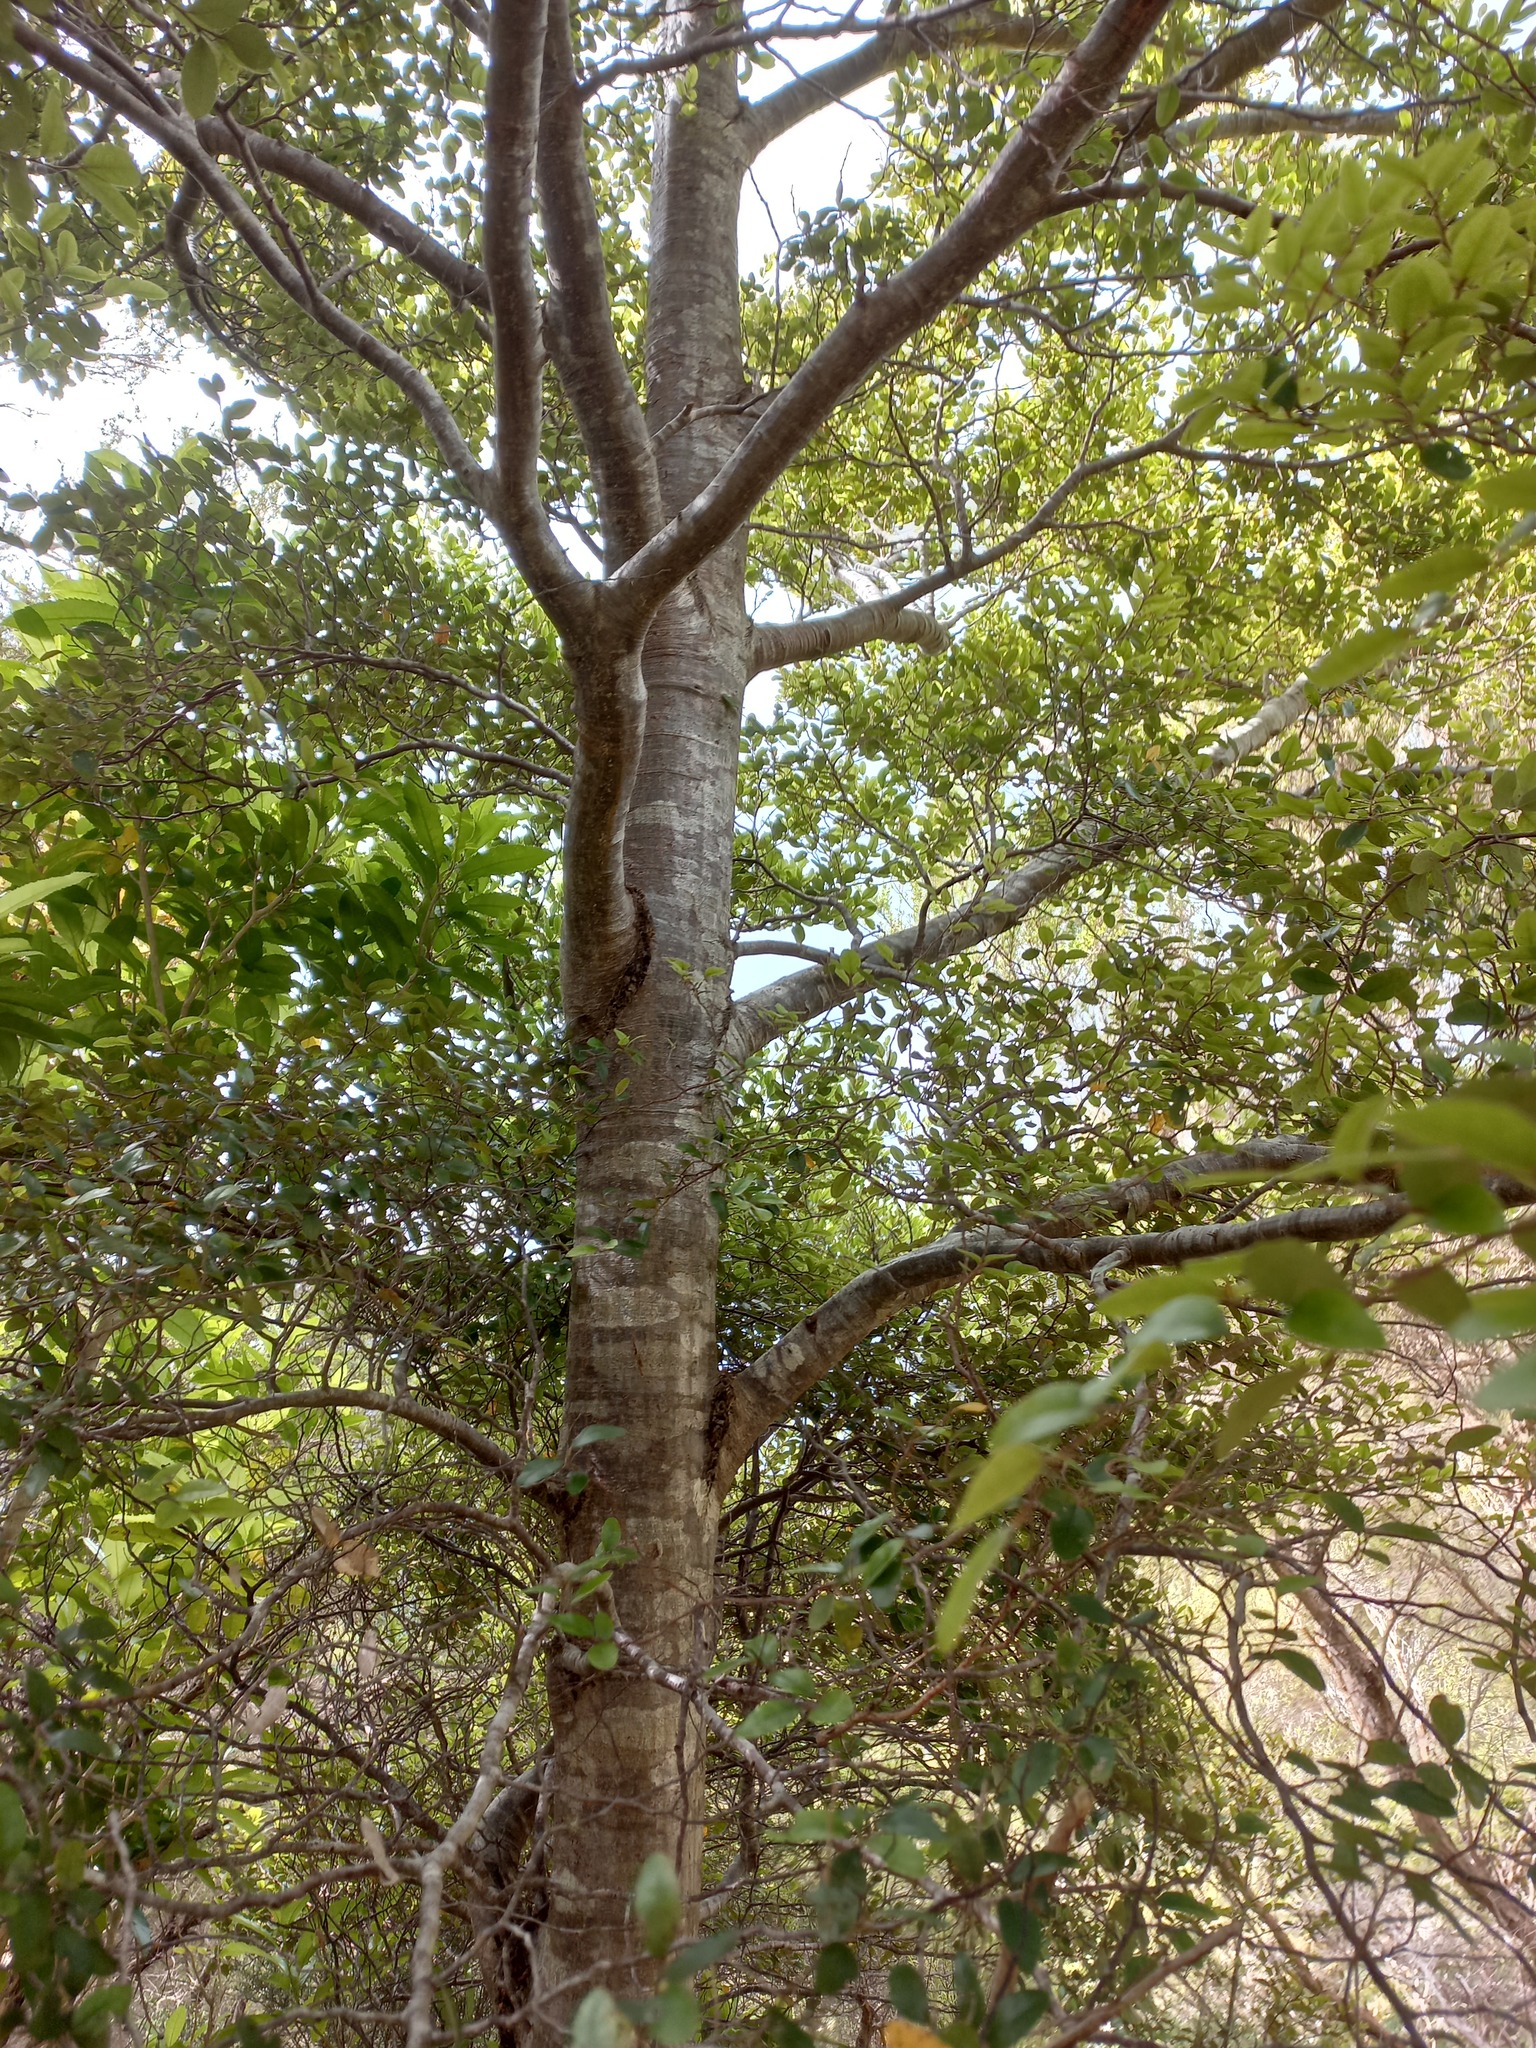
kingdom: Plantae
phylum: Tracheophyta
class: Magnoliopsida
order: Fagales
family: Nothofagaceae
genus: Nothofagus
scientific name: Nothofagus truncata
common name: Hard beech
